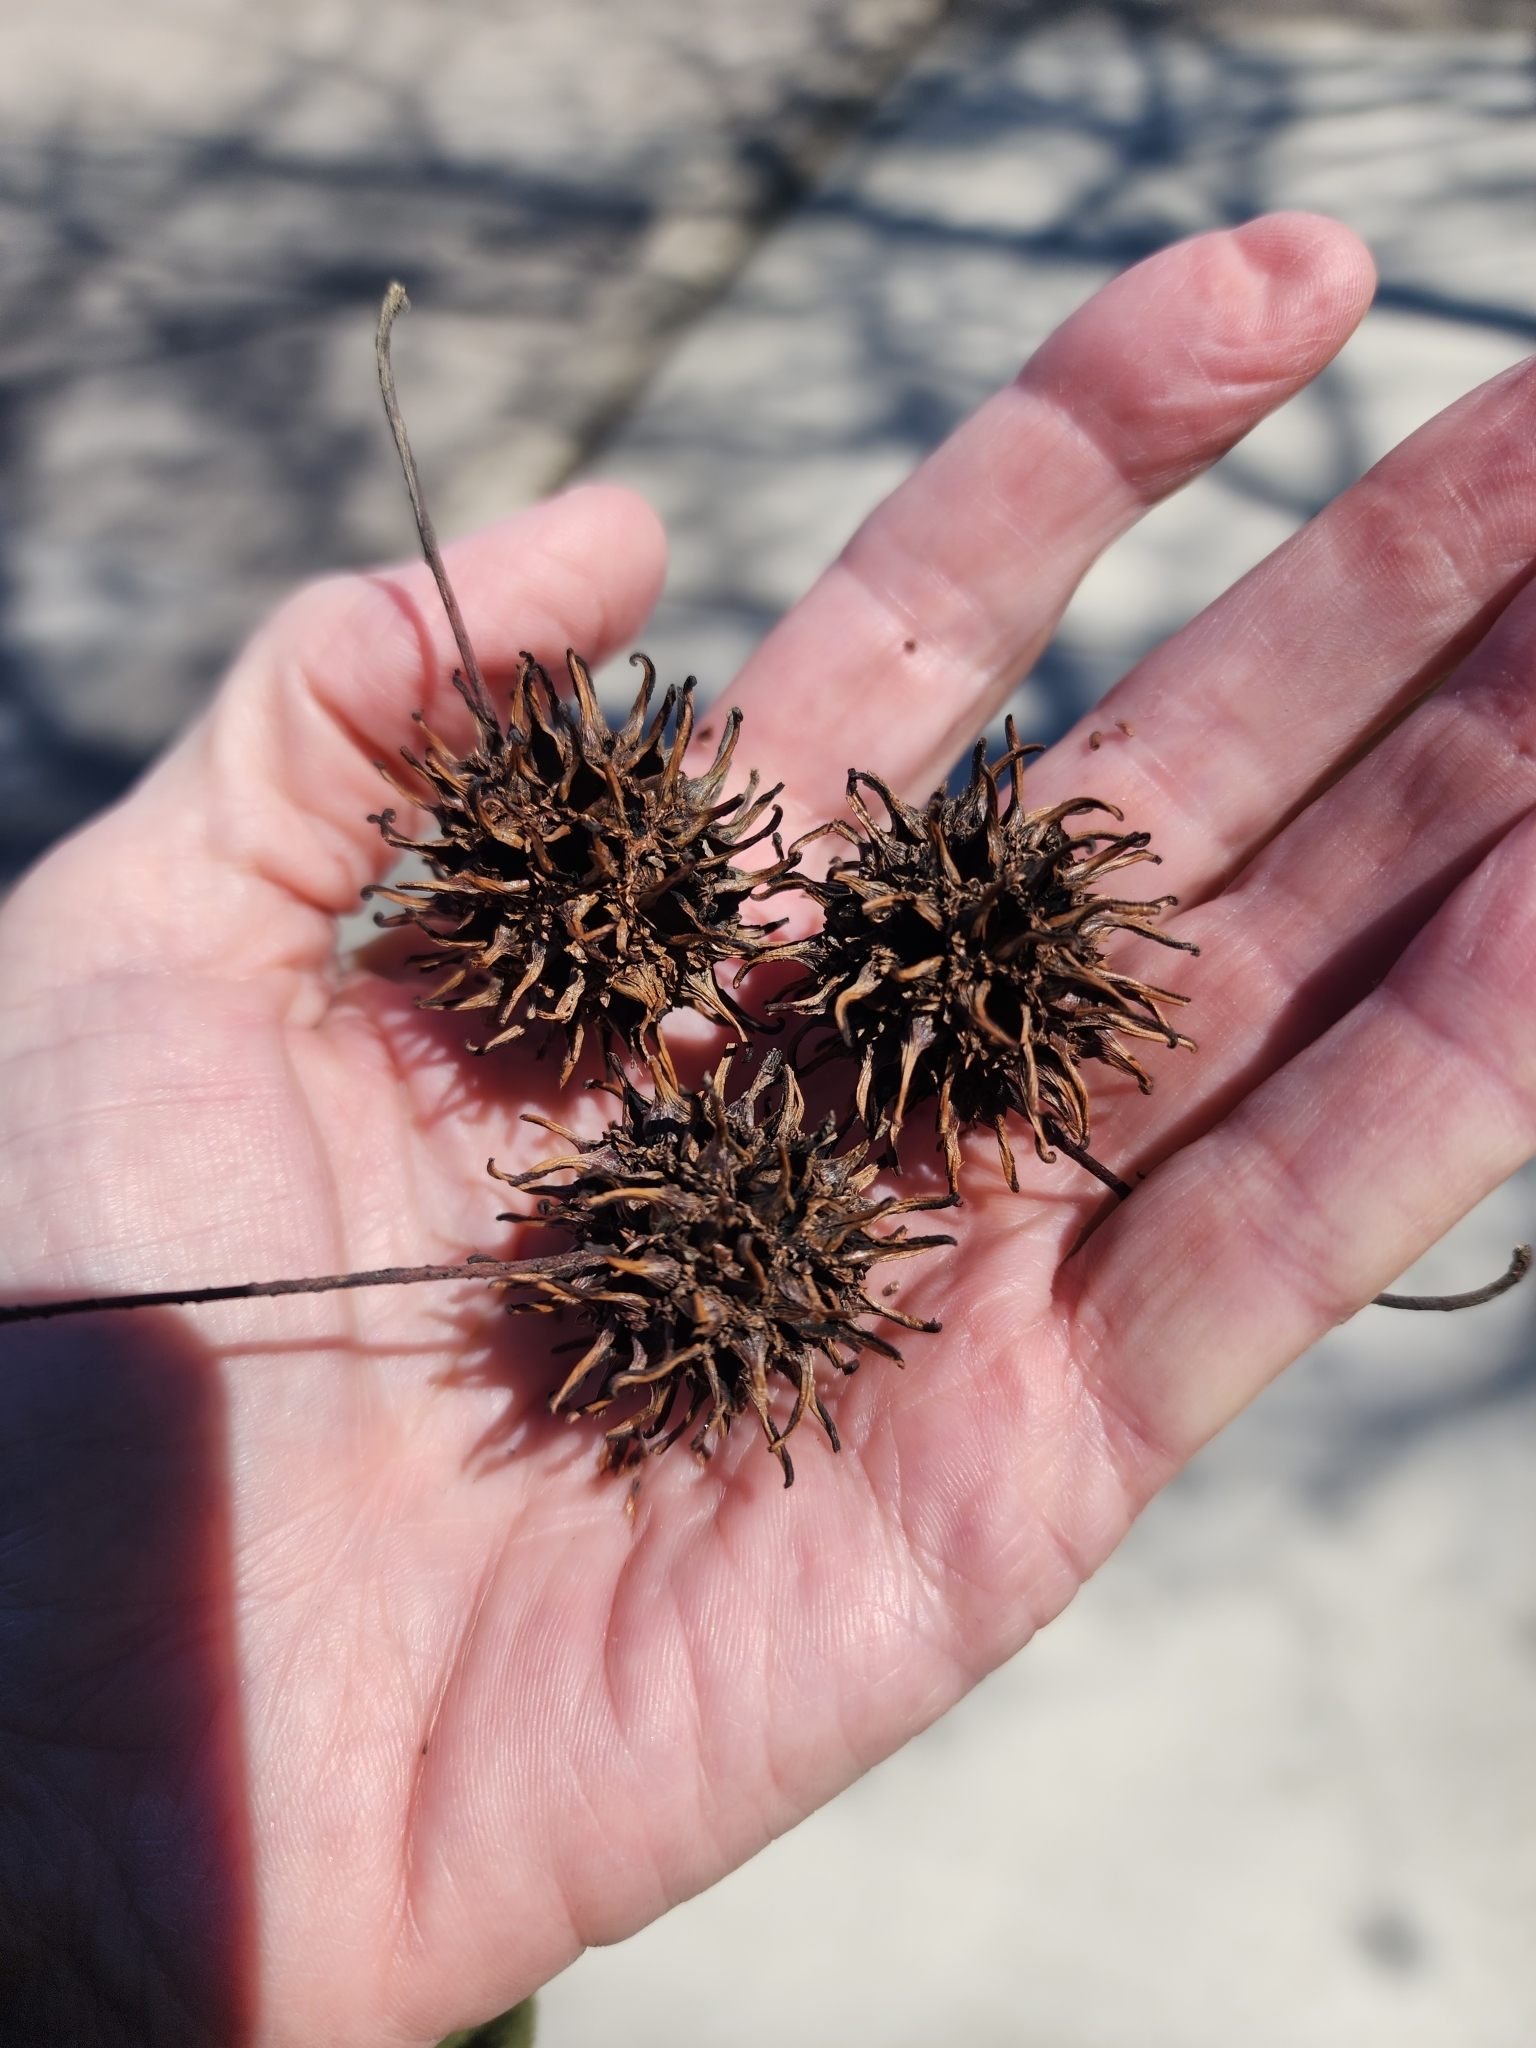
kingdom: Plantae
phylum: Tracheophyta
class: Magnoliopsida
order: Saxifragales
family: Altingiaceae
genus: Liquidambar
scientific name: Liquidambar styraciflua
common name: Sweet gum
